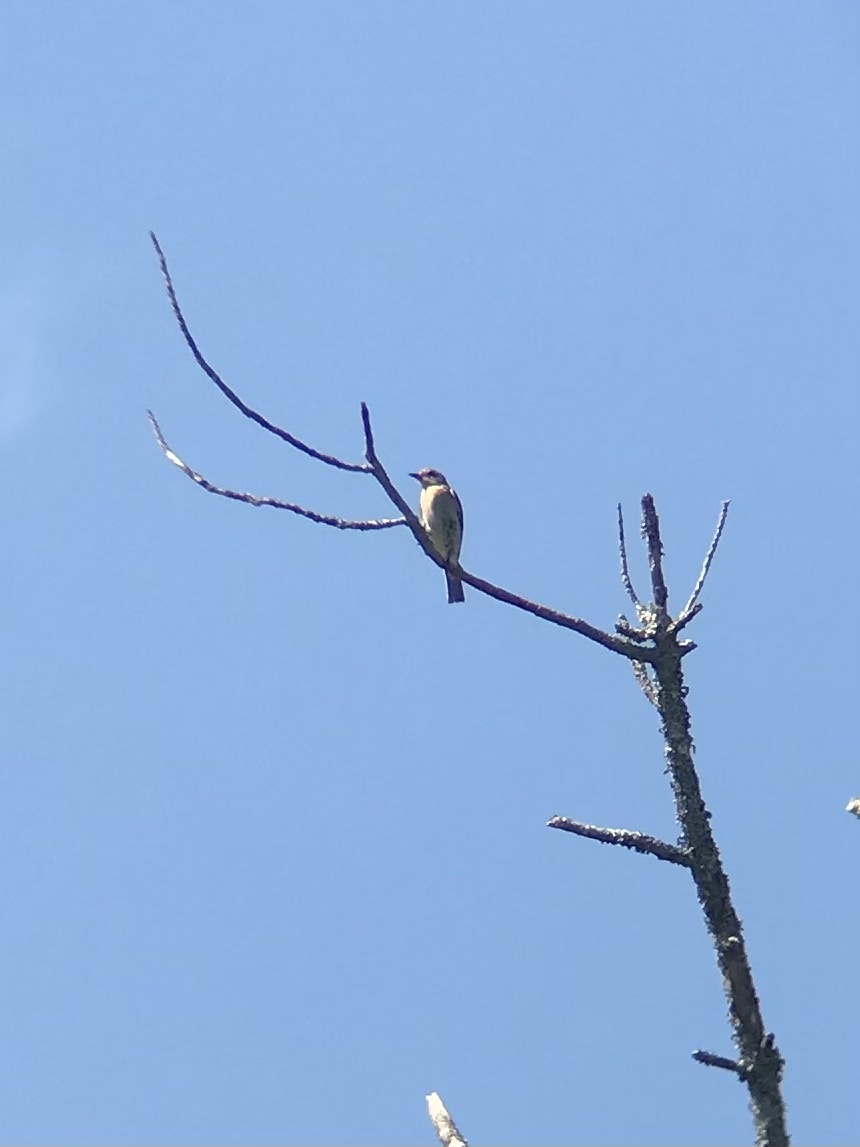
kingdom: Animalia
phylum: Chordata
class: Aves
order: Passeriformes
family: Turdidae
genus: Sialia
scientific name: Sialia sialis
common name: Eastern bluebird
